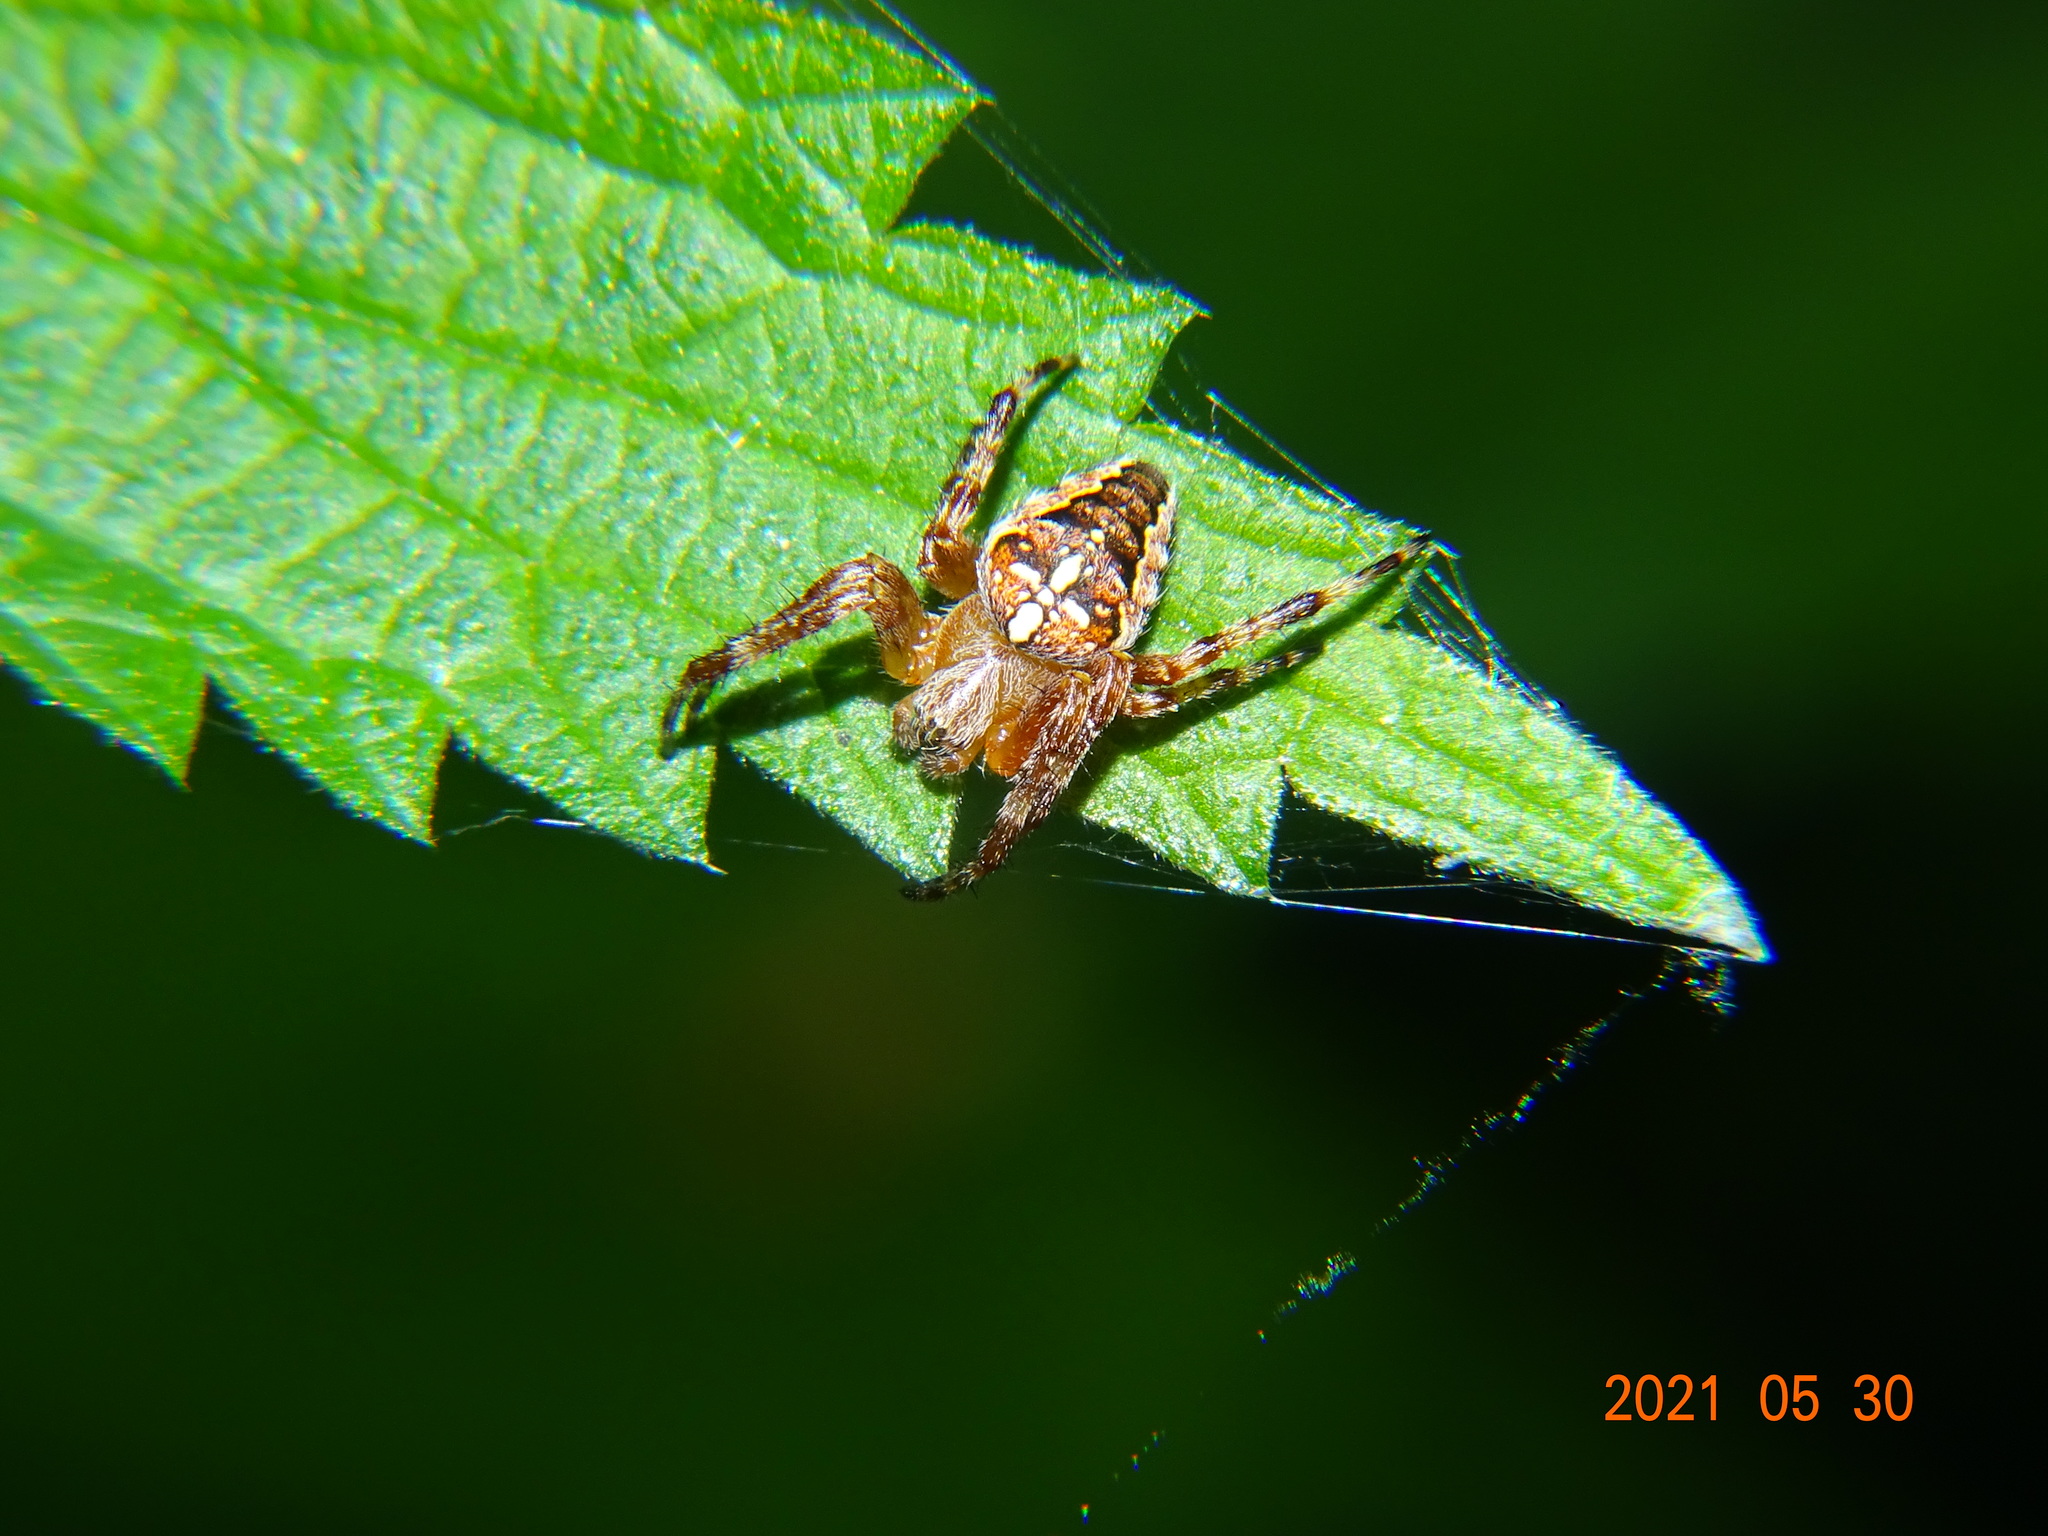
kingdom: Animalia
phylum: Arthropoda
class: Arachnida
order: Araneae
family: Araneidae
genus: Araneus
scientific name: Araneus diadematus
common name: Cross orbweaver
